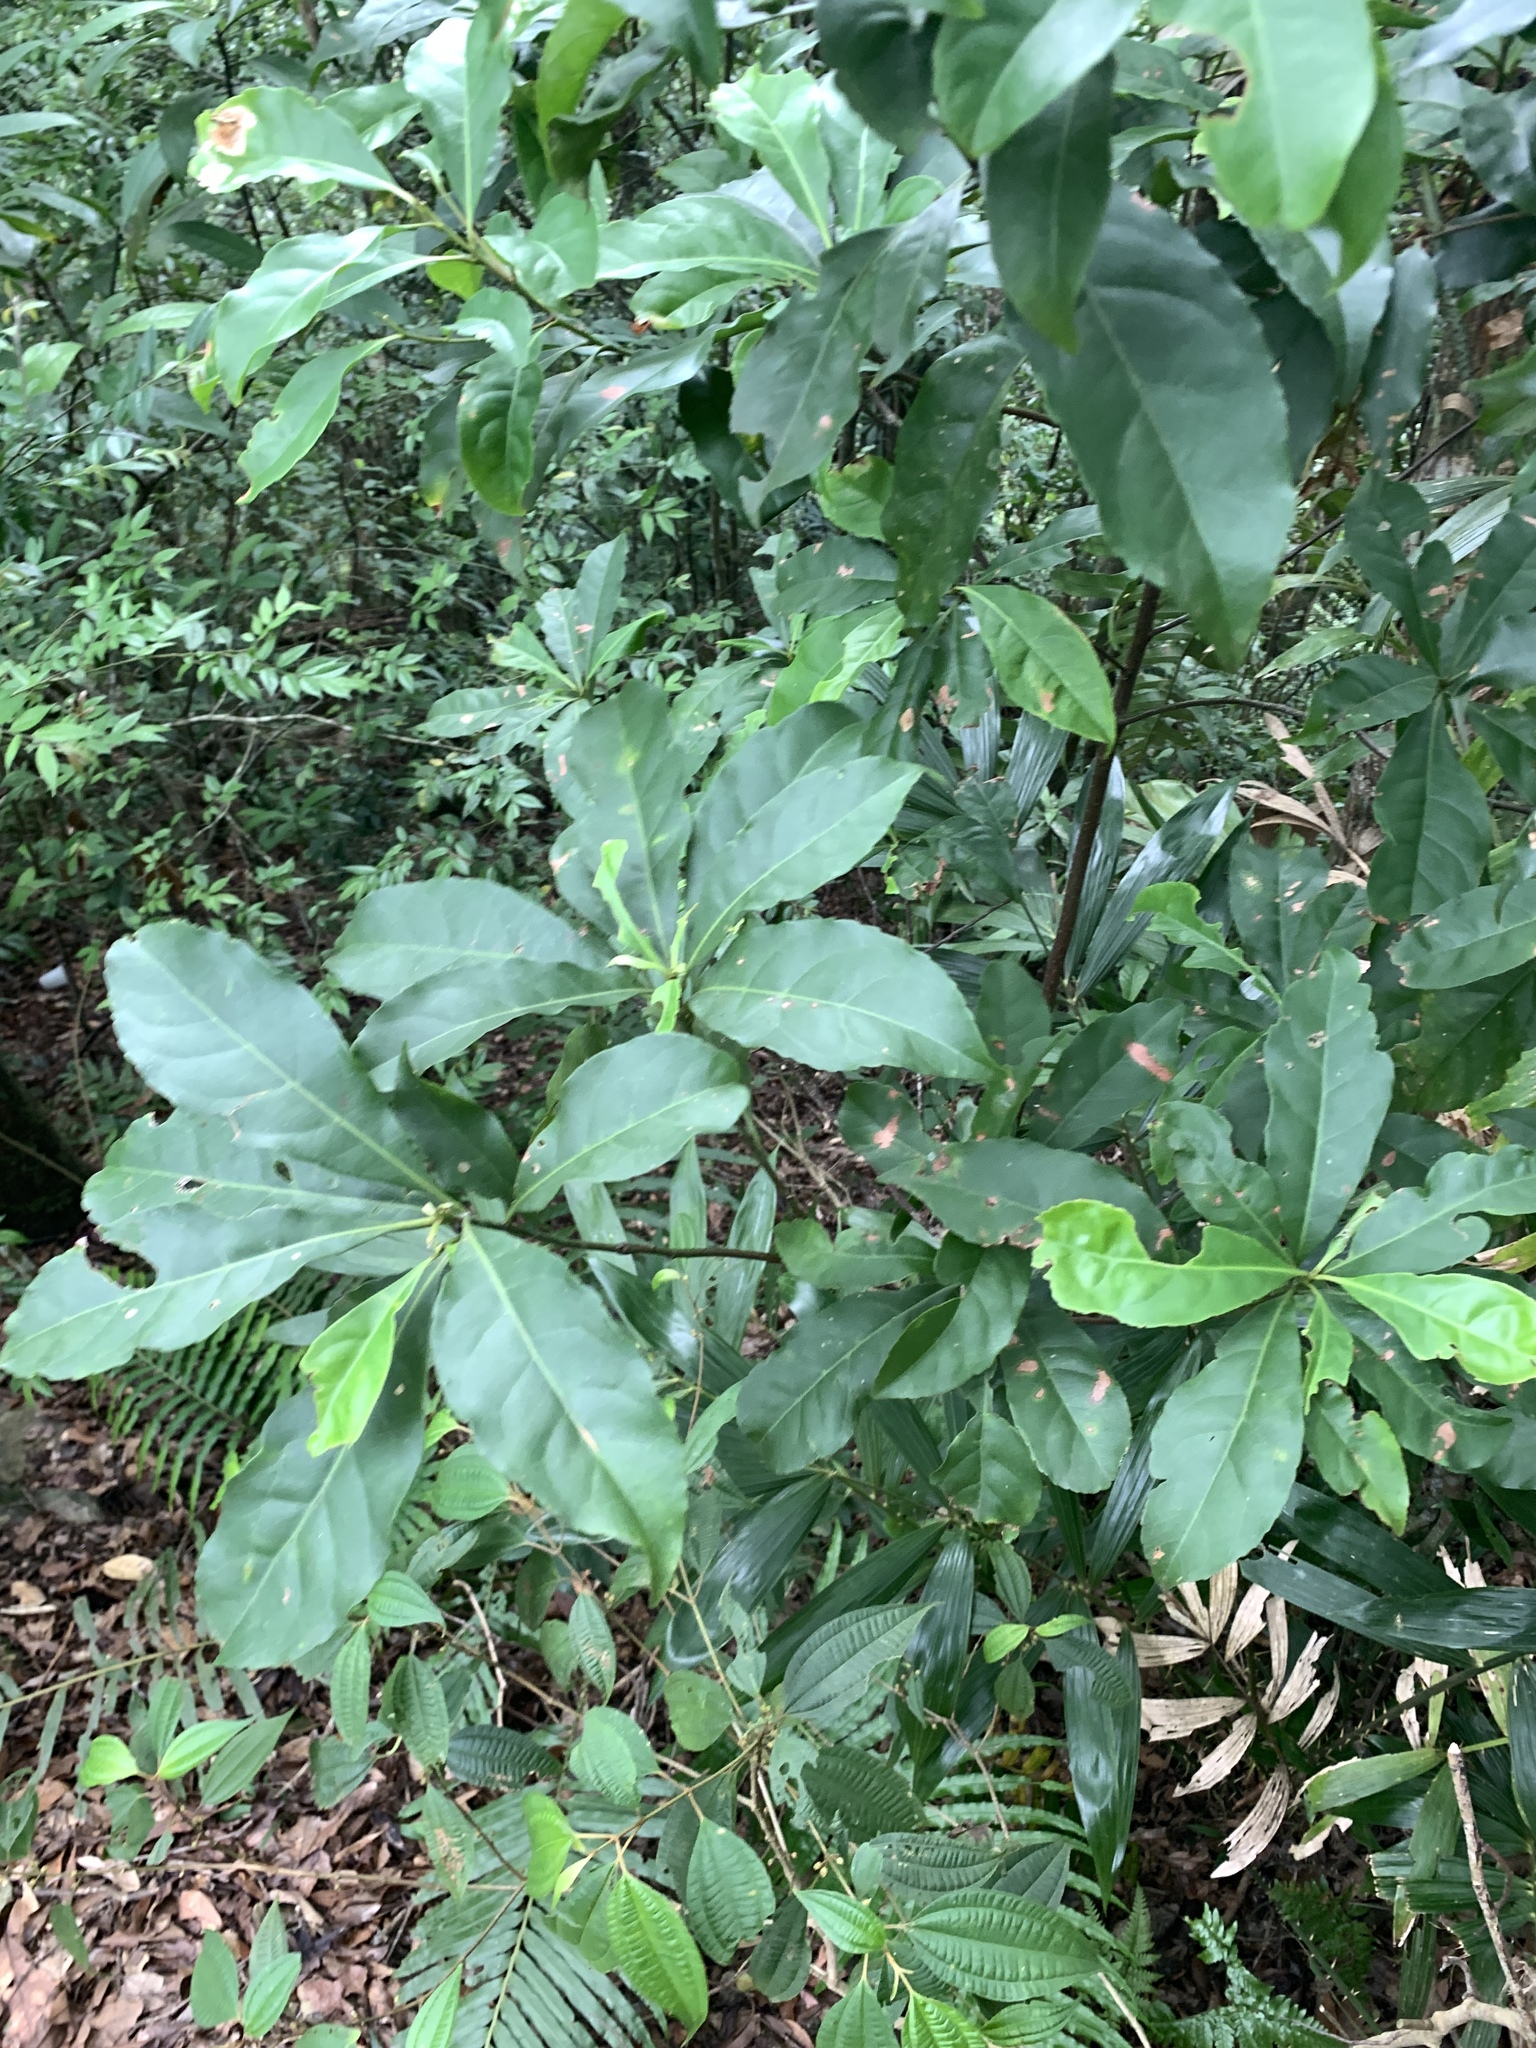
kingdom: Plantae
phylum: Tracheophyta
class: Magnoliopsida
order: Oxalidales
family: Elaeocarpaceae
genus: Elaeocarpus
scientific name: Elaeocarpus decipiens
